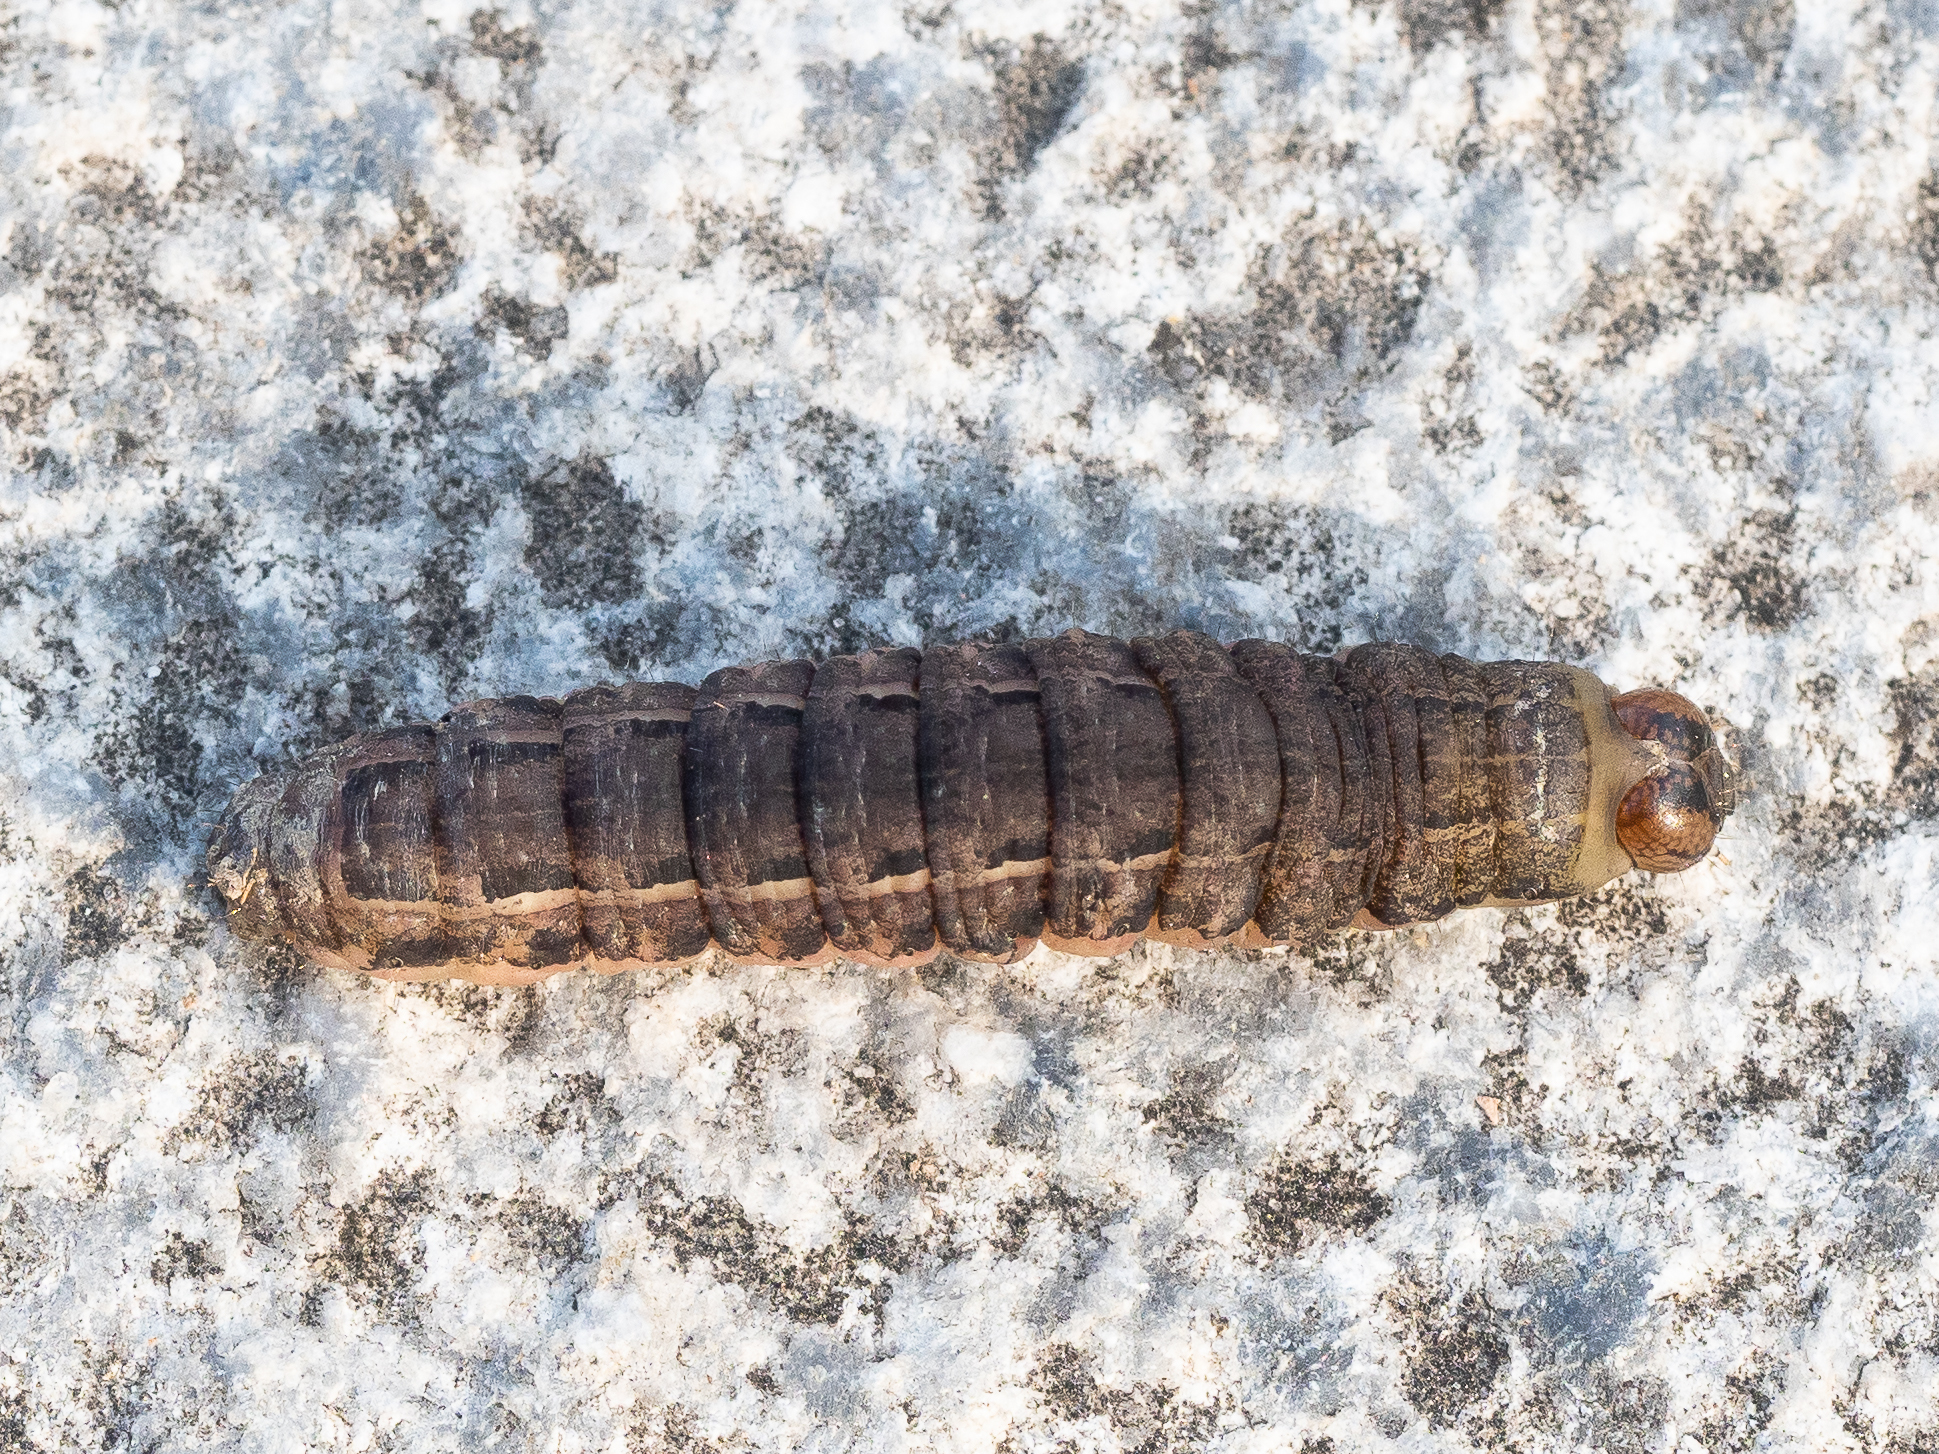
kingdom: Animalia
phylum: Arthropoda
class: Insecta
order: Lepidoptera
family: Noctuidae
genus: Noctua
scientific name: Noctua pronuba
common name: Large yellow underwing
